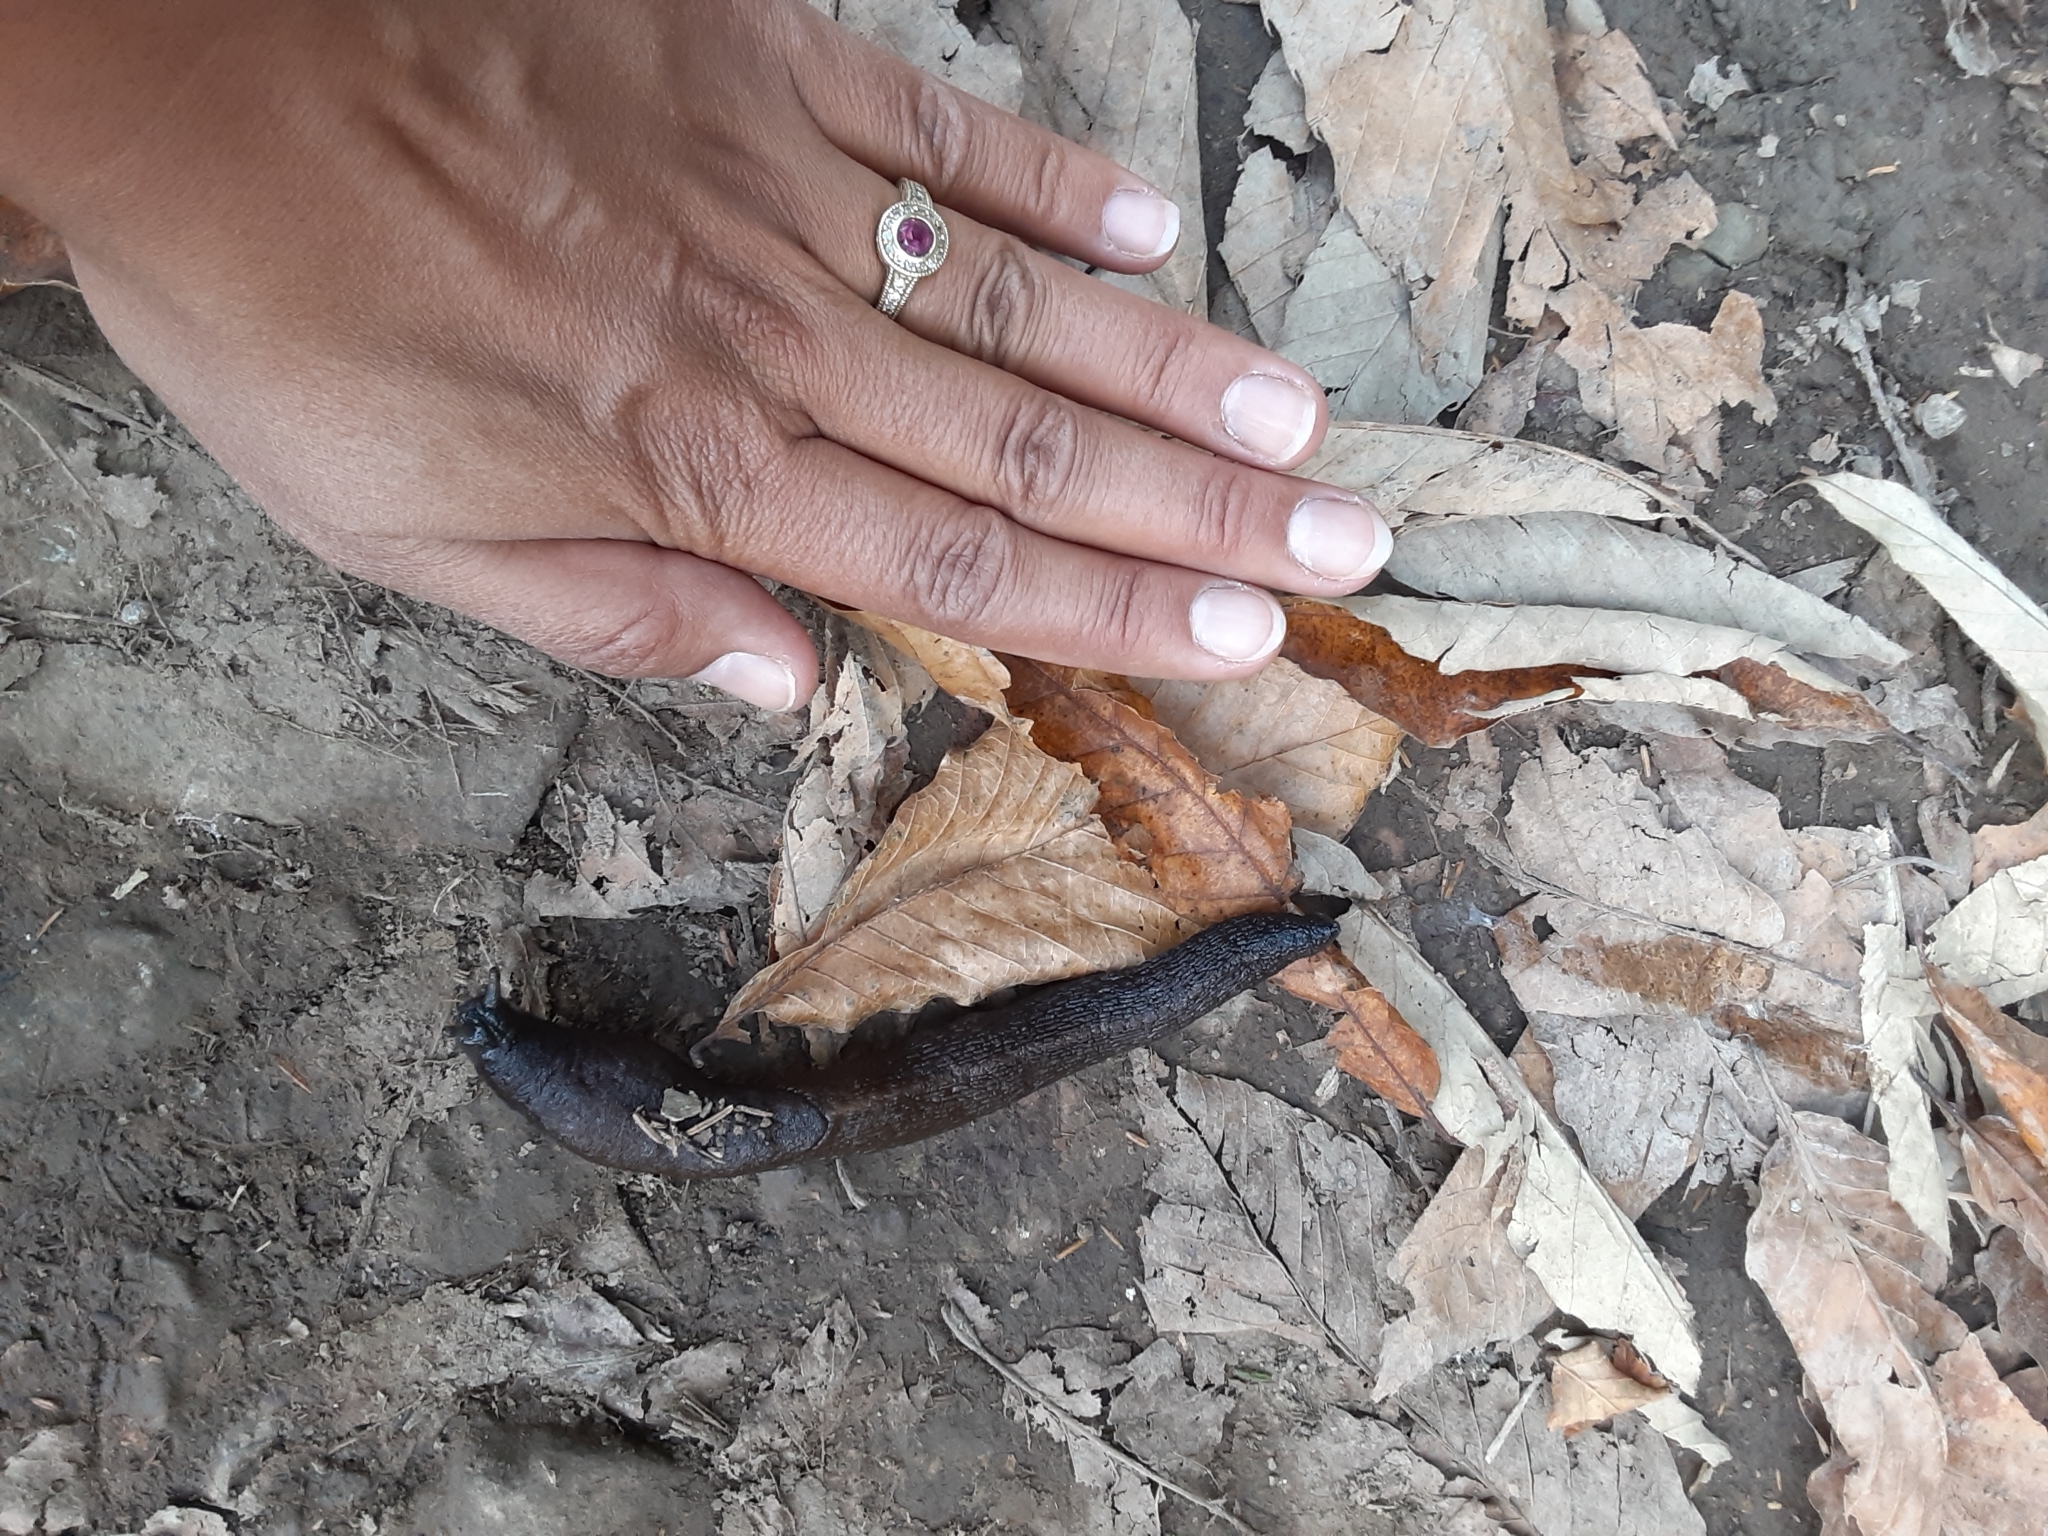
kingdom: Animalia
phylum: Mollusca
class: Gastropoda
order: Stylommatophora
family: Limacidae
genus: Eumilax
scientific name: Eumilax brandti
